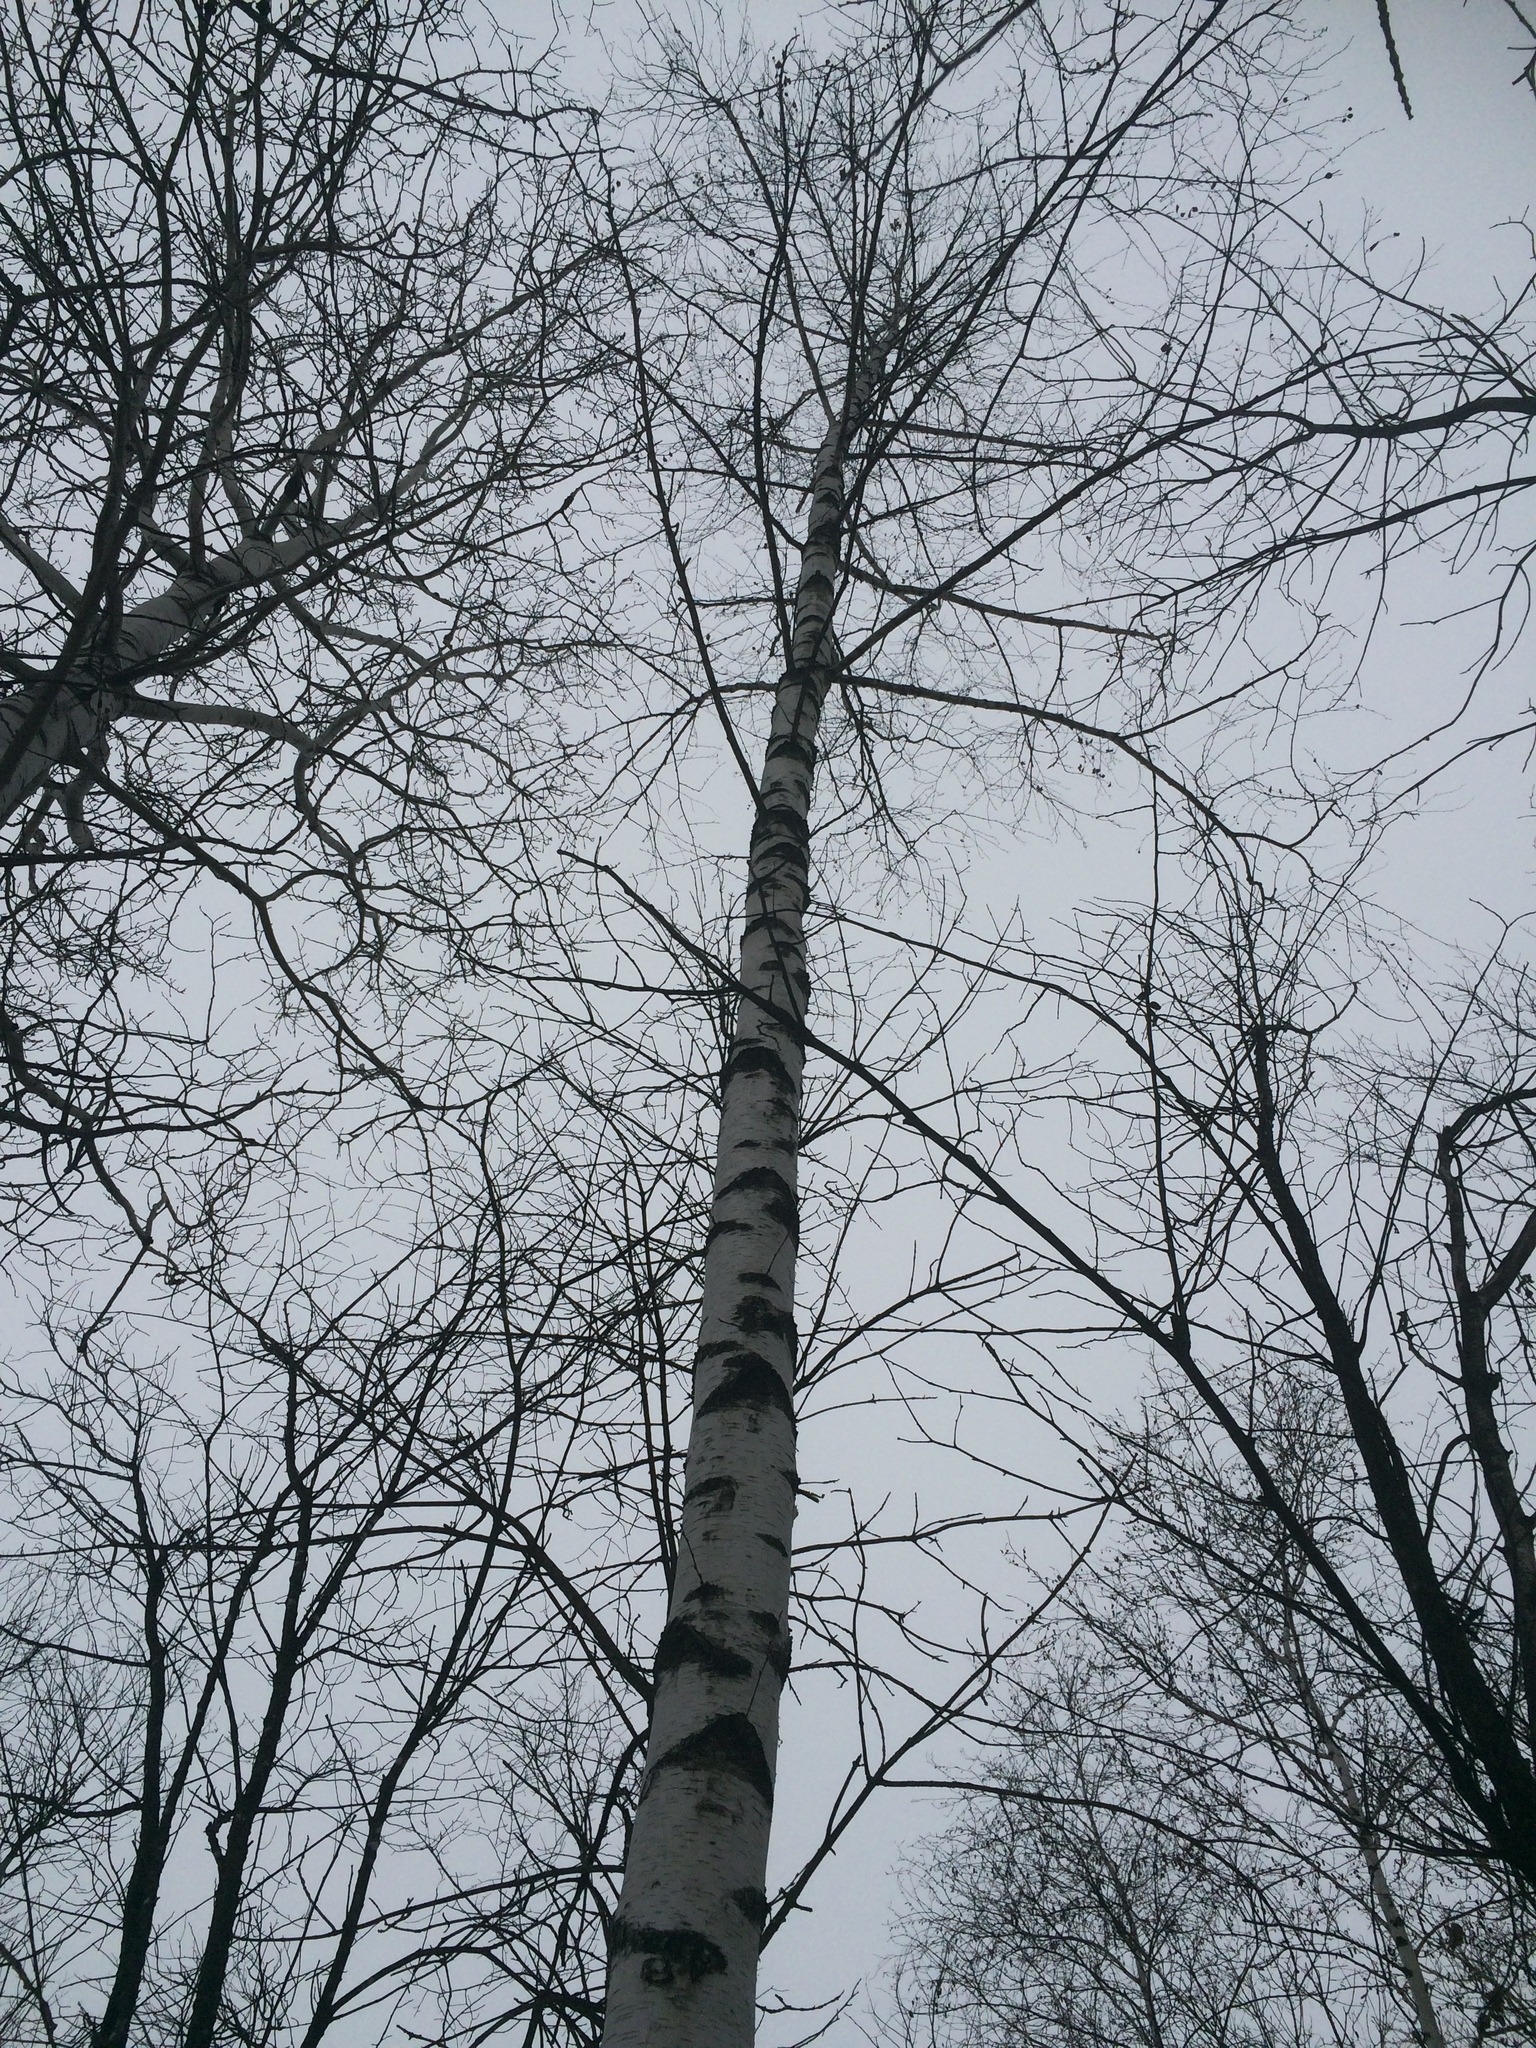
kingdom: Plantae
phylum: Tracheophyta
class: Magnoliopsida
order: Fagales
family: Betulaceae
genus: Betula
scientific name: Betula pendula
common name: Silver birch
